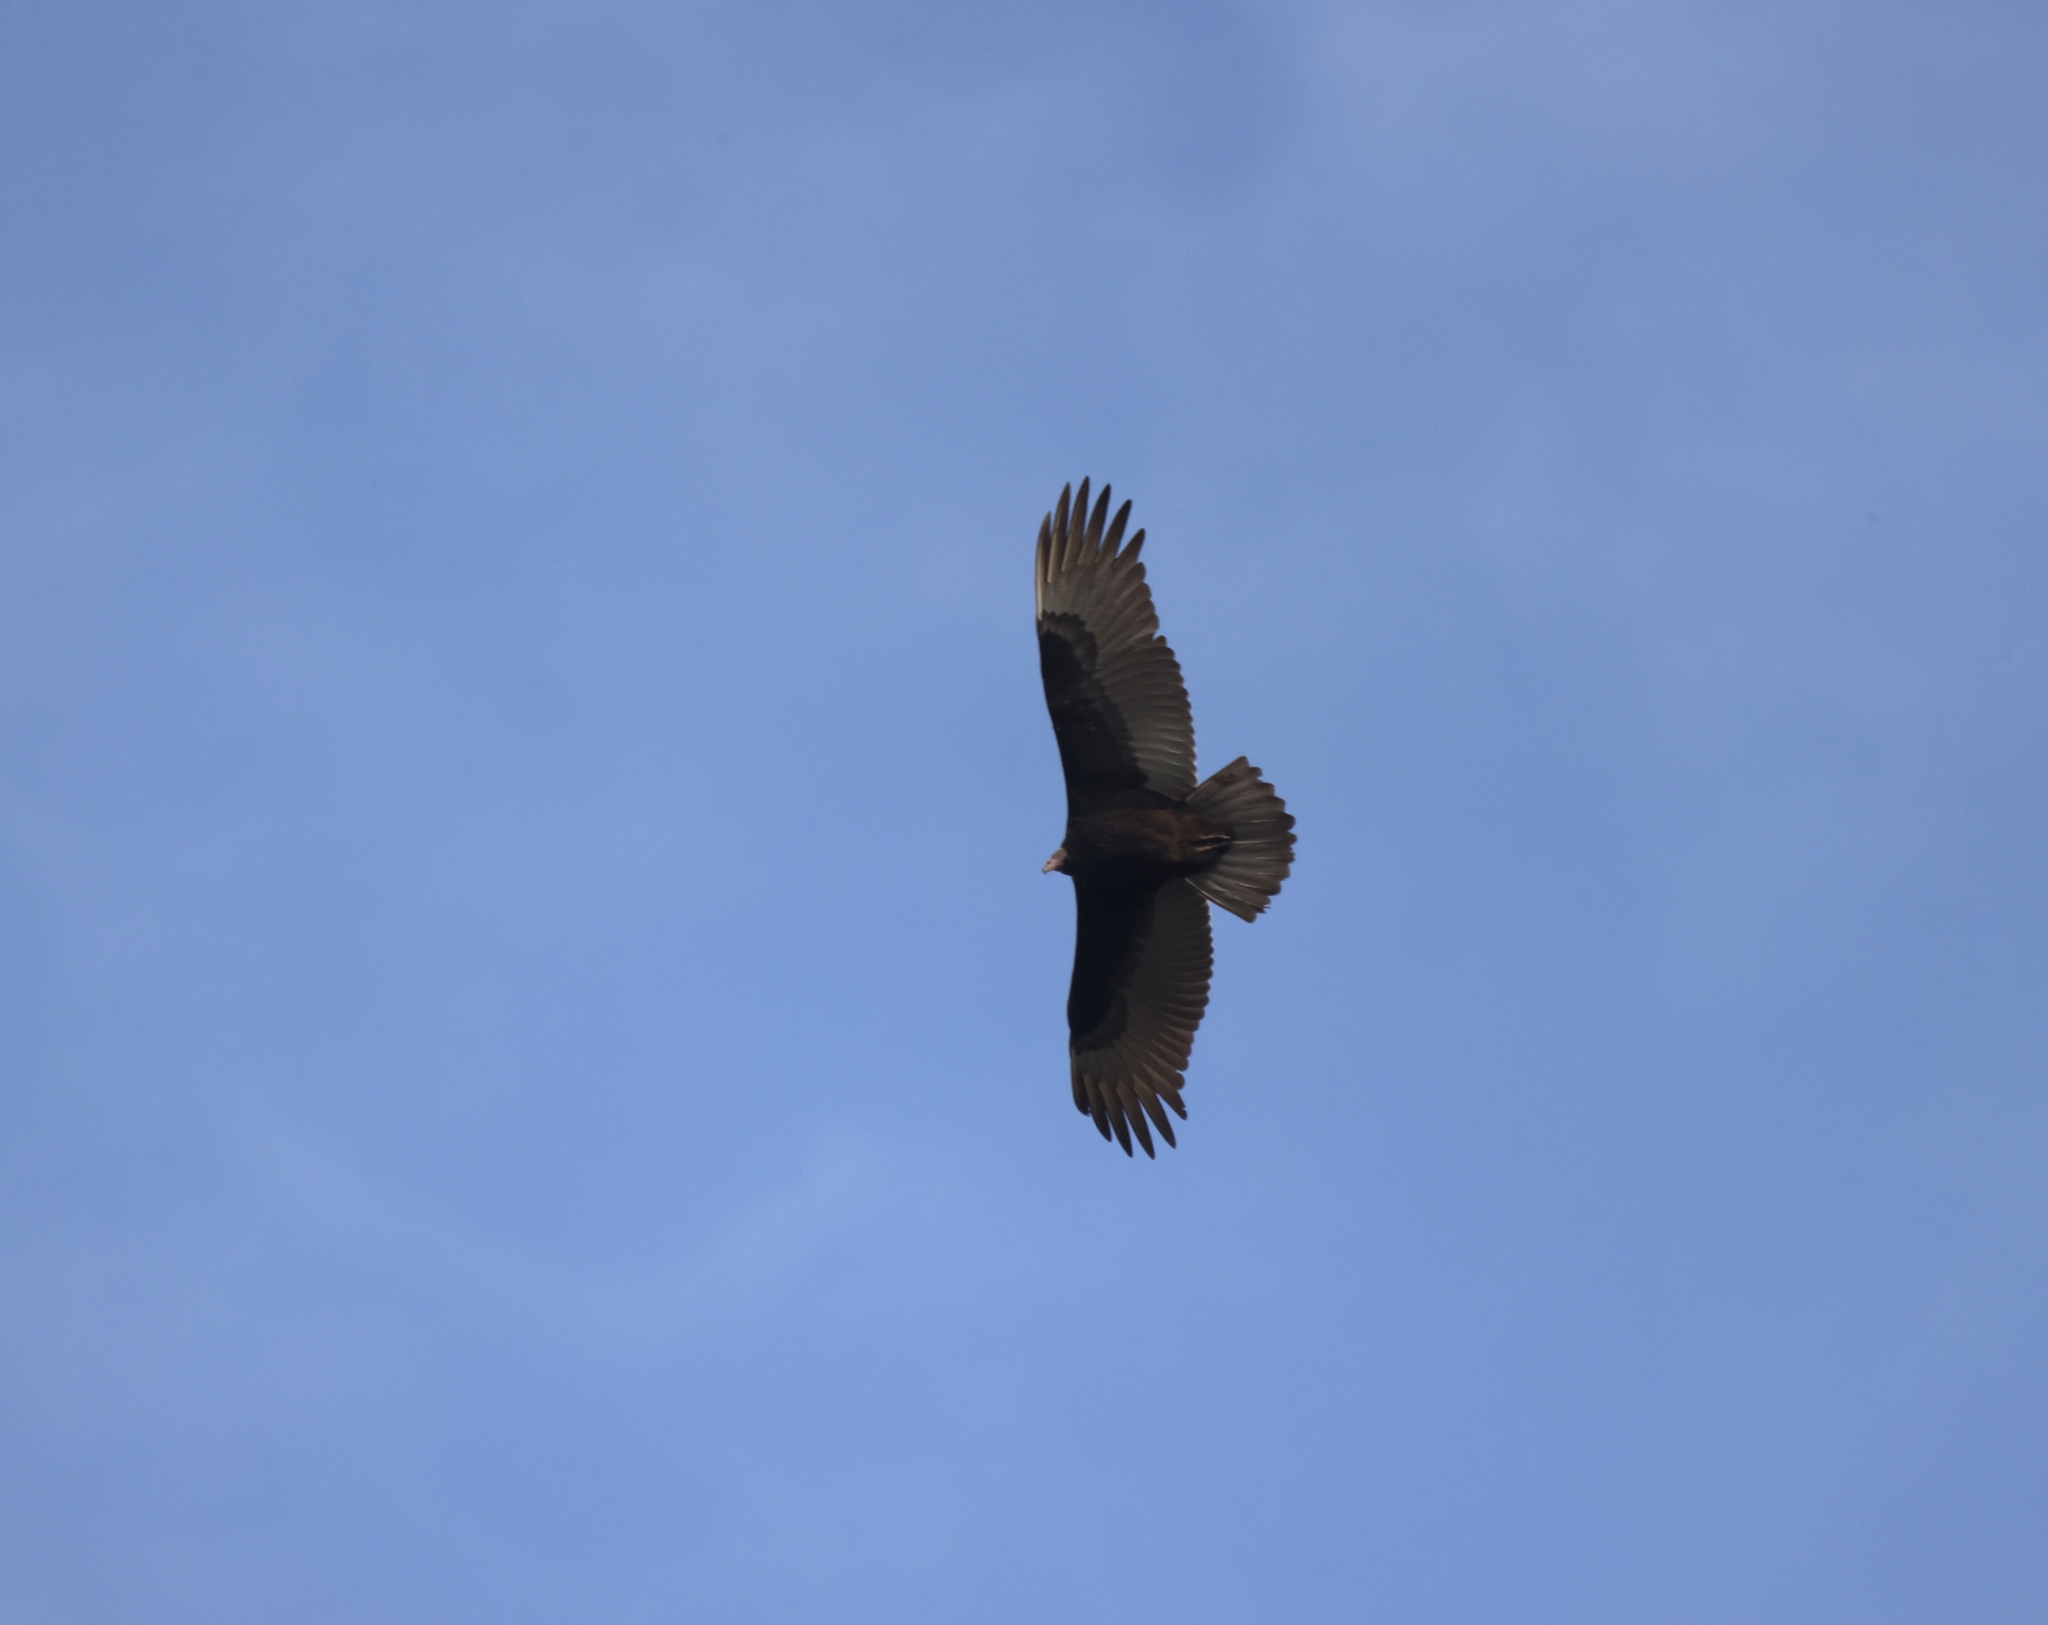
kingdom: Animalia
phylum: Chordata
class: Aves
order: Accipitriformes
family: Cathartidae
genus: Cathartes
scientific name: Cathartes aura
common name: Turkey vulture
